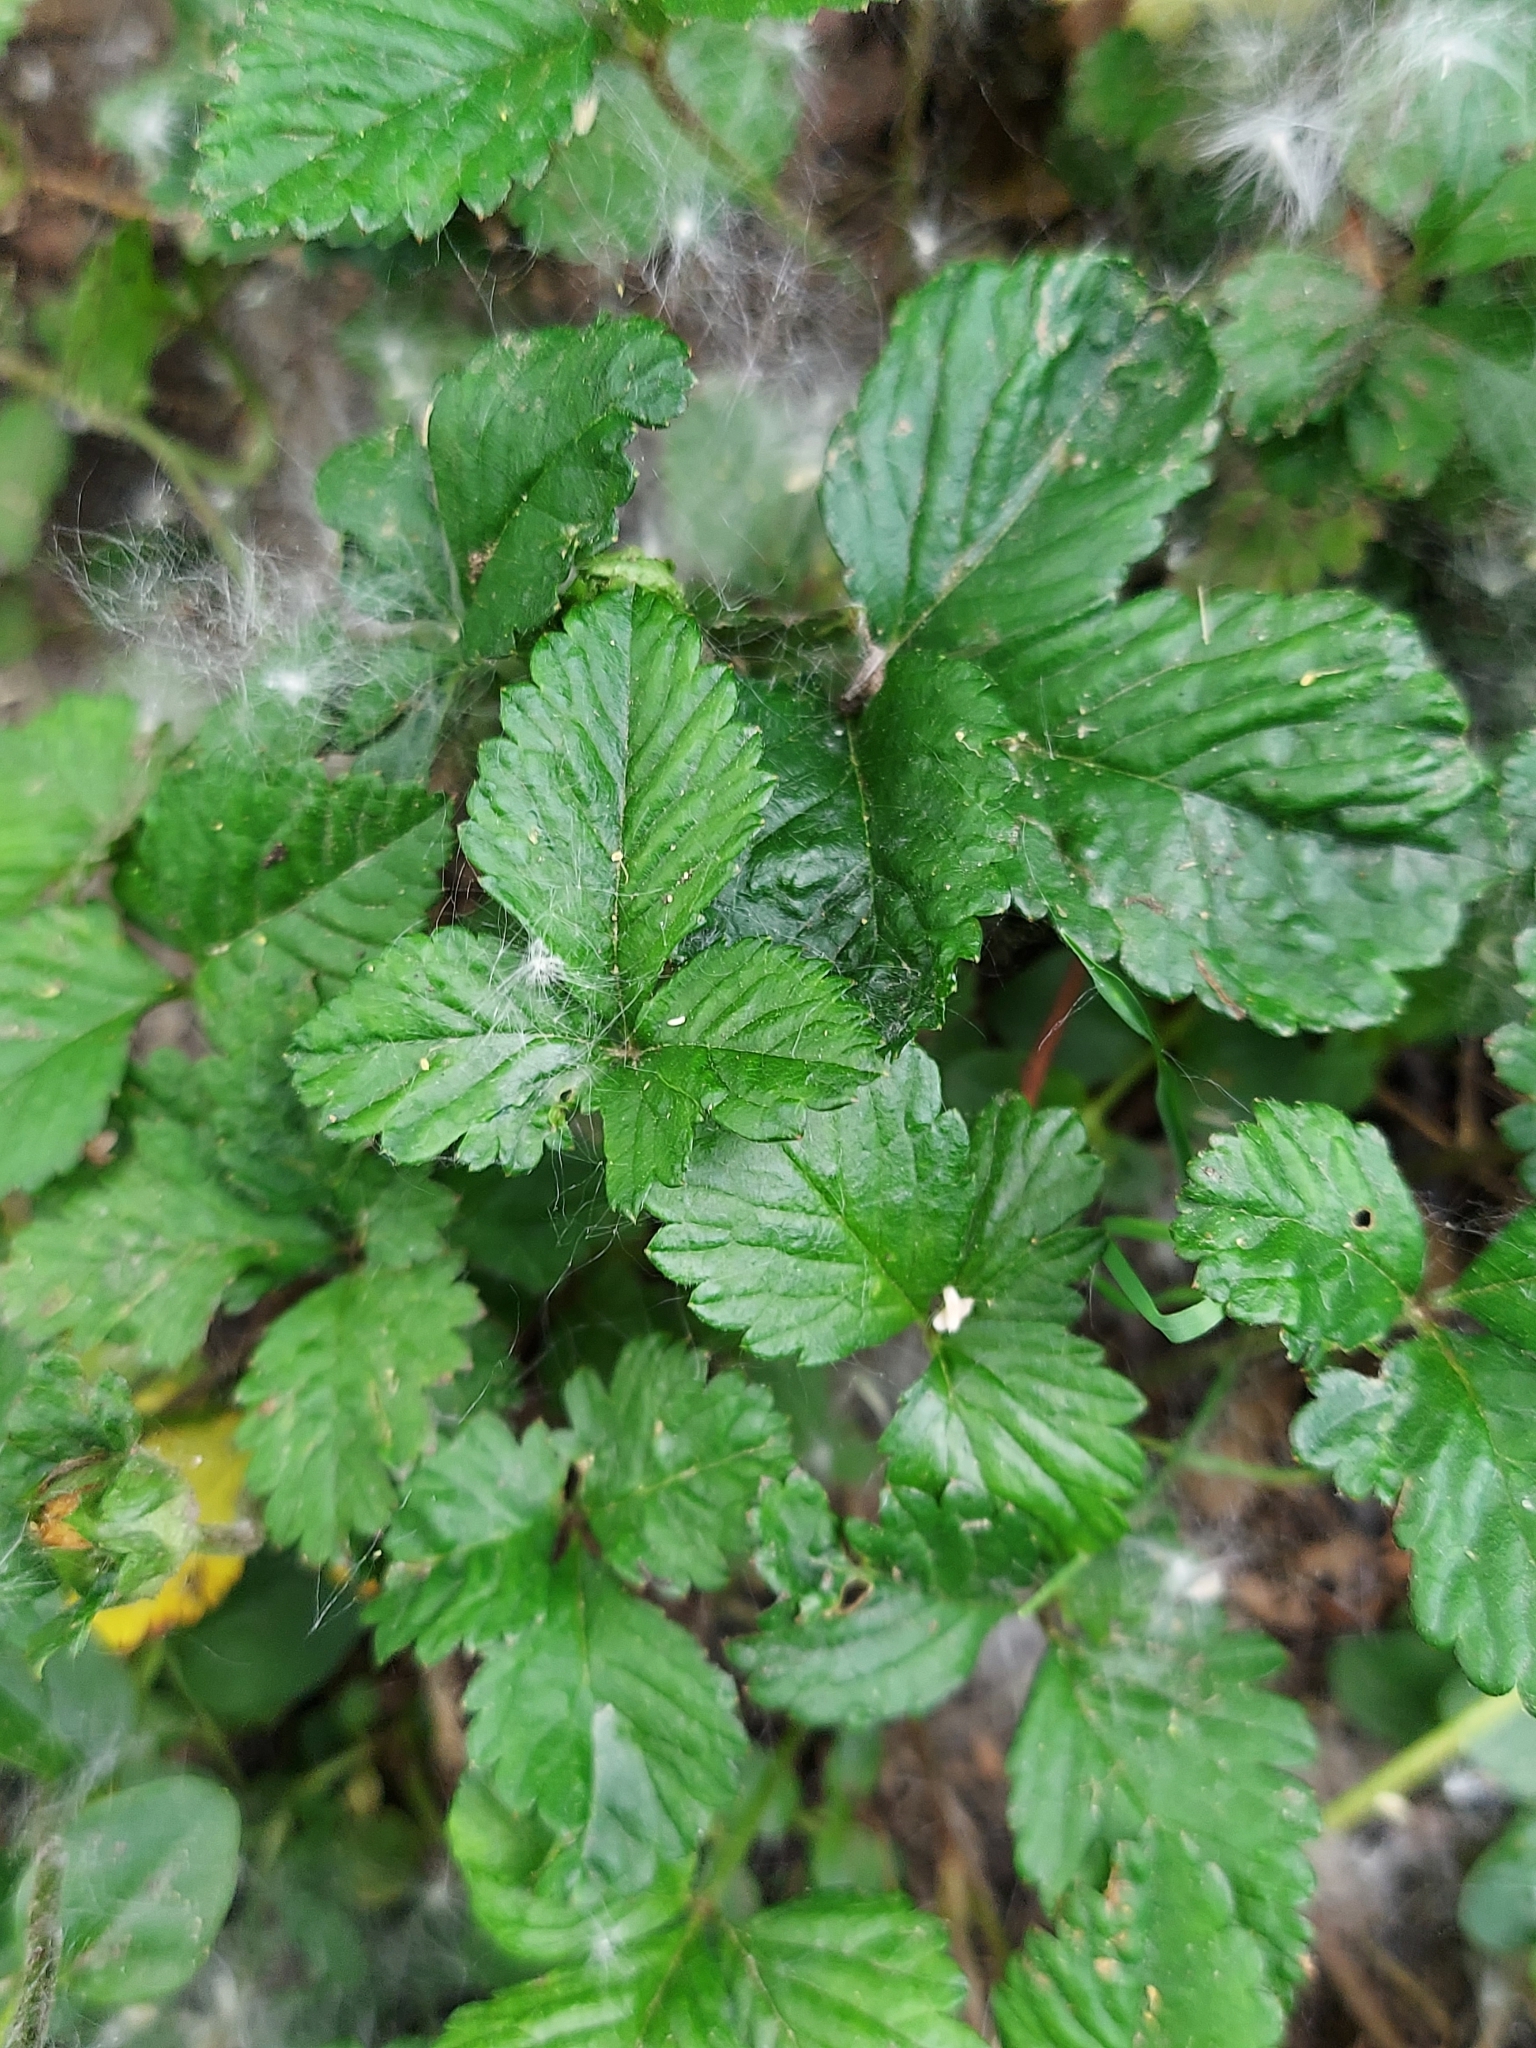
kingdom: Plantae
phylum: Tracheophyta
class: Magnoliopsida
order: Rosales
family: Rosaceae
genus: Potentilla
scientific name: Potentilla indica
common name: Yellow-flowered strawberry
